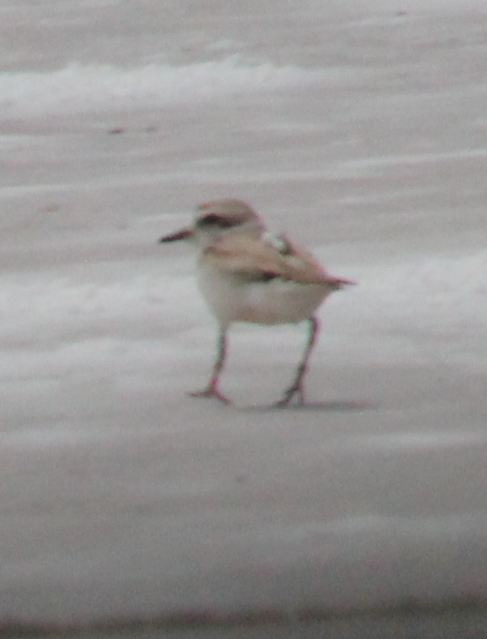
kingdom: Animalia
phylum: Chordata
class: Aves
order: Charadriiformes
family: Charadriidae
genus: Anarhynchus
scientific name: Anarhynchus
